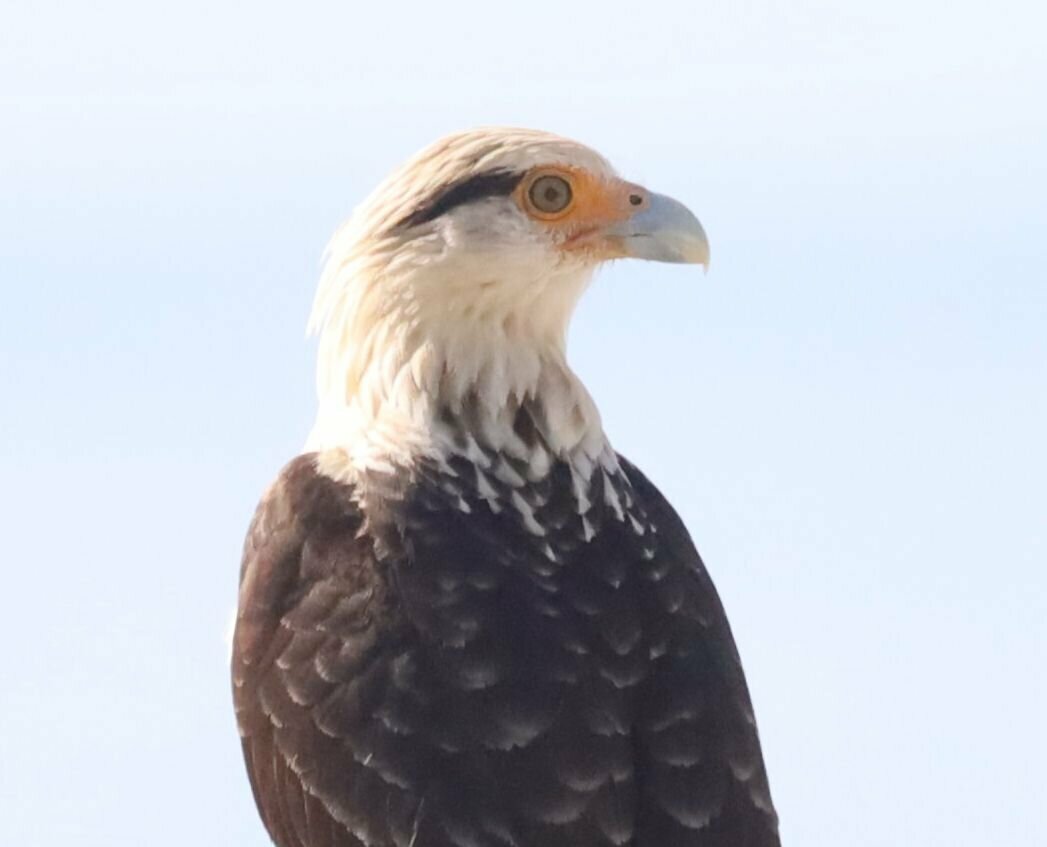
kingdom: Animalia
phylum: Chordata
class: Aves
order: Falconiformes
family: Falconidae
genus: Daptrius
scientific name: Daptrius
